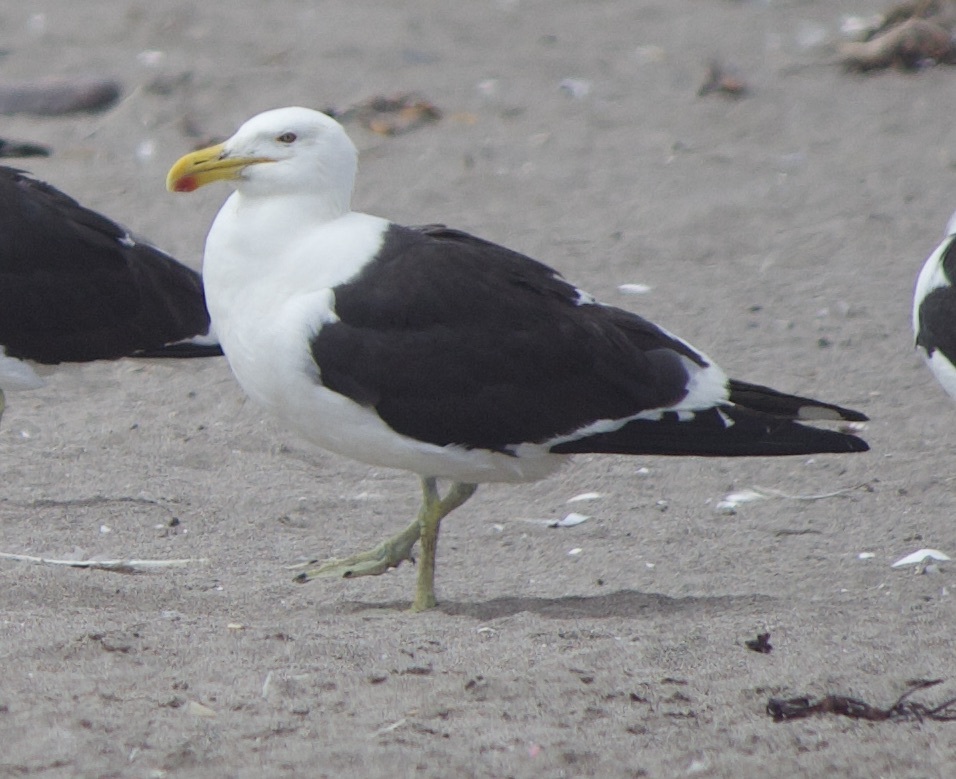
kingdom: Animalia
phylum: Chordata
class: Aves
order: Charadriiformes
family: Laridae
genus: Larus
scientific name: Larus dominicanus
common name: Kelp gull
